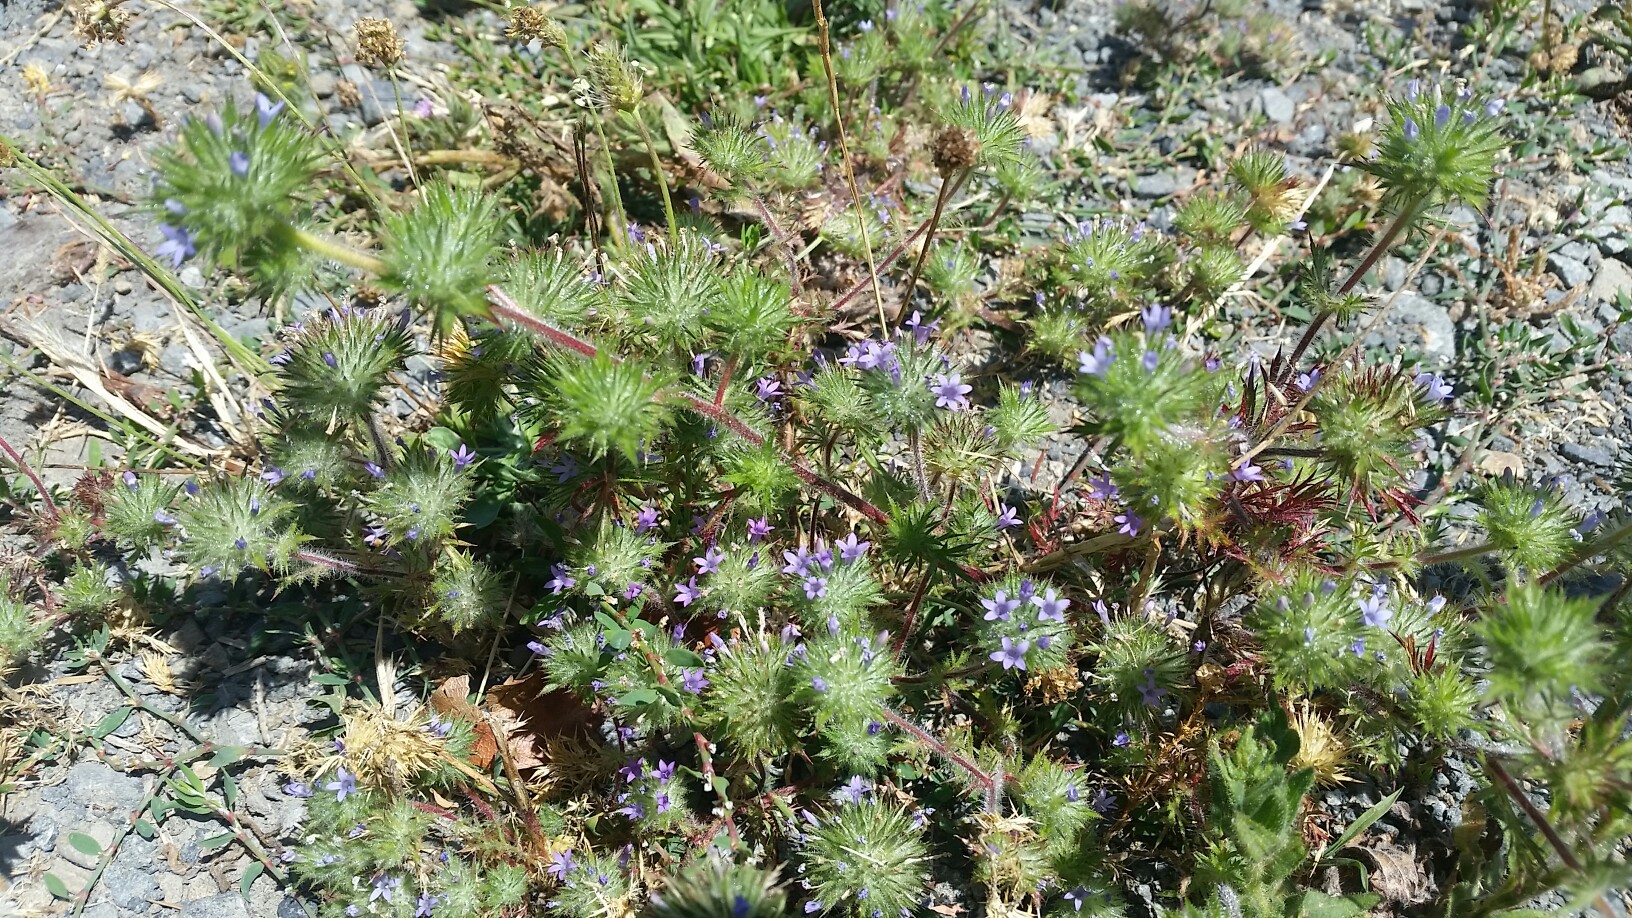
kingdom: Plantae
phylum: Tracheophyta
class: Magnoliopsida
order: Ericales
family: Polemoniaceae
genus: Navarretia
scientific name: Navarretia squarrosa
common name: Skunkweed
